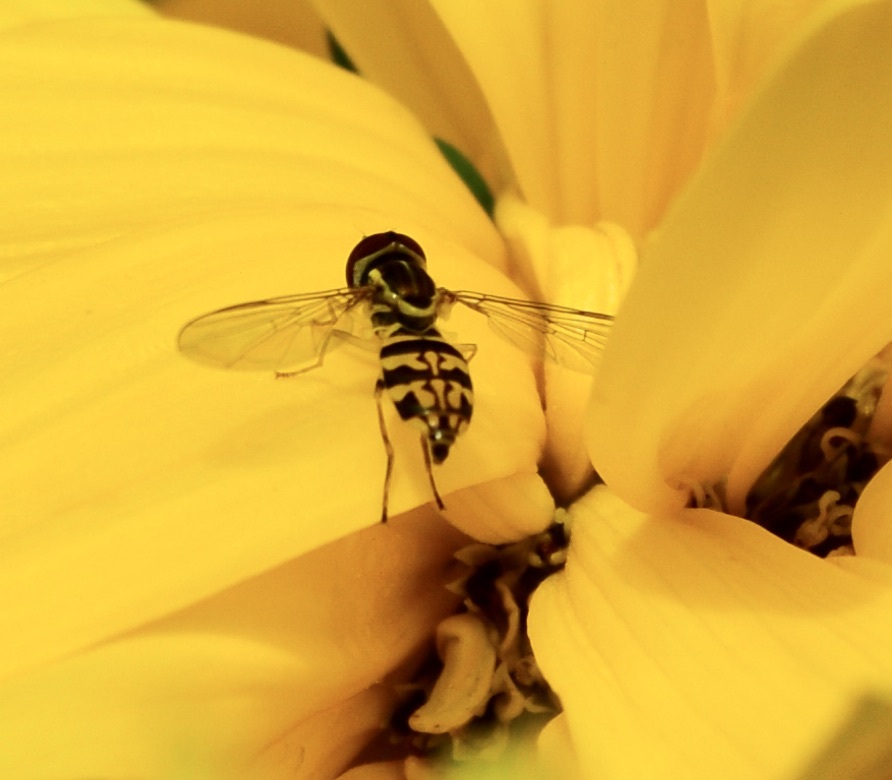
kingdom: Animalia
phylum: Arthropoda
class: Insecta
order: Diptera
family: Syrphidae
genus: Toxomerus
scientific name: Toxomerus geminatus
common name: Eastern calligrapher
